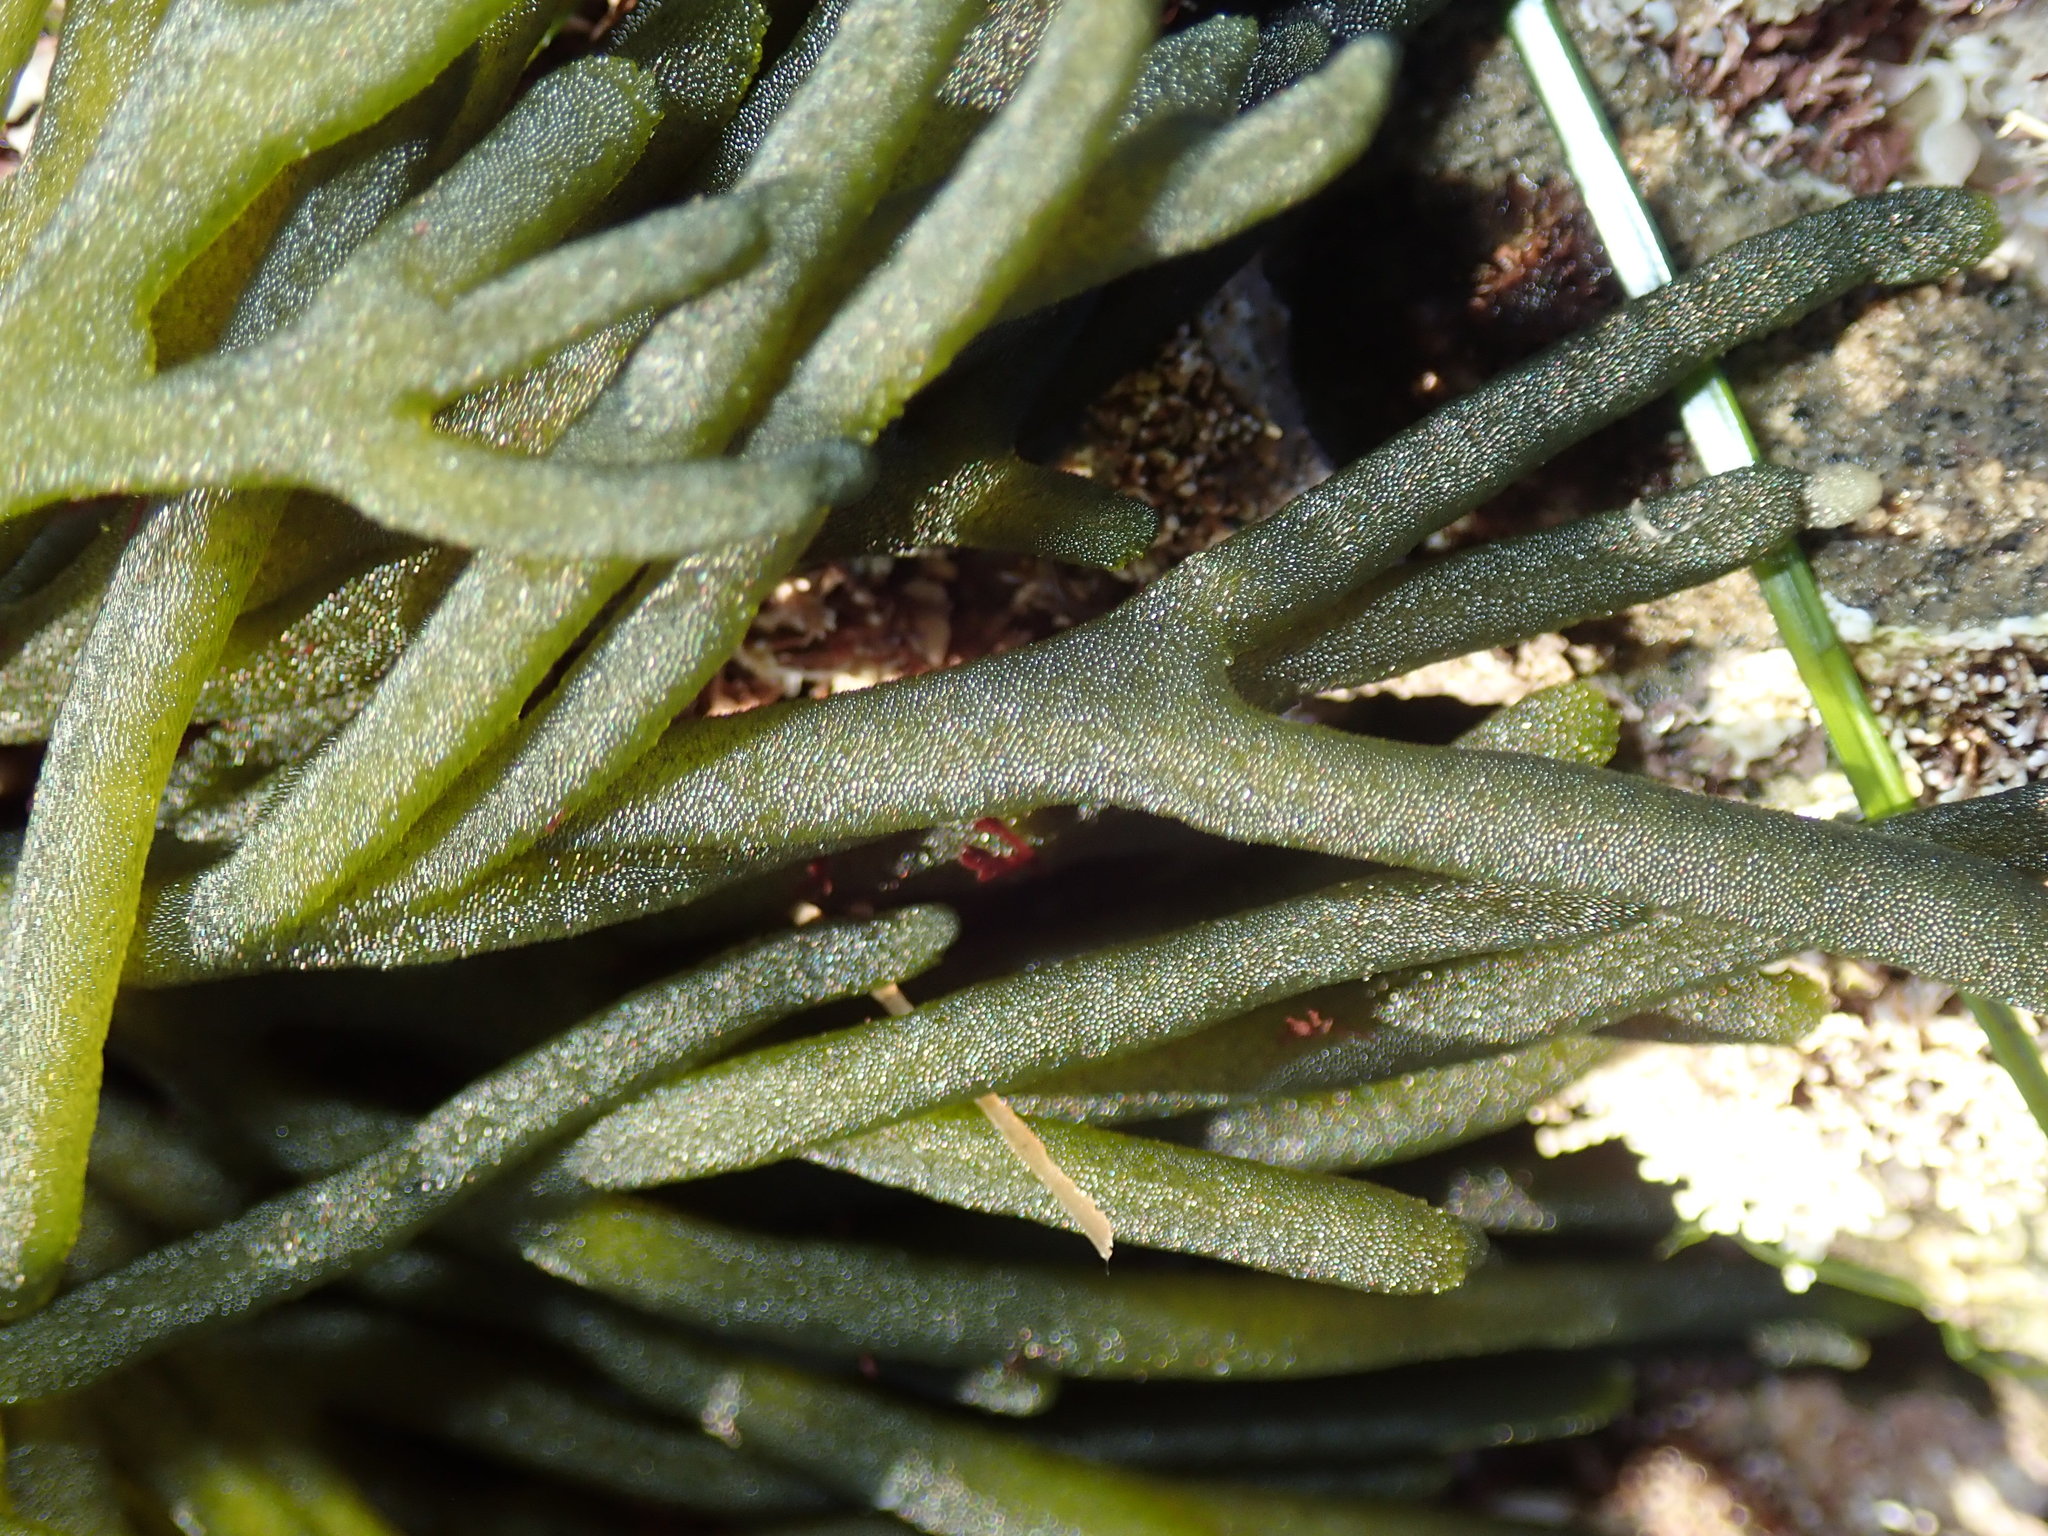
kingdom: Plantae
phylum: Chlorophyta
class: Ulvophyceae
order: Bryopsidales
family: Codiaceae
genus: Codium
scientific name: Codium fragile
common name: Dead man's fingers
